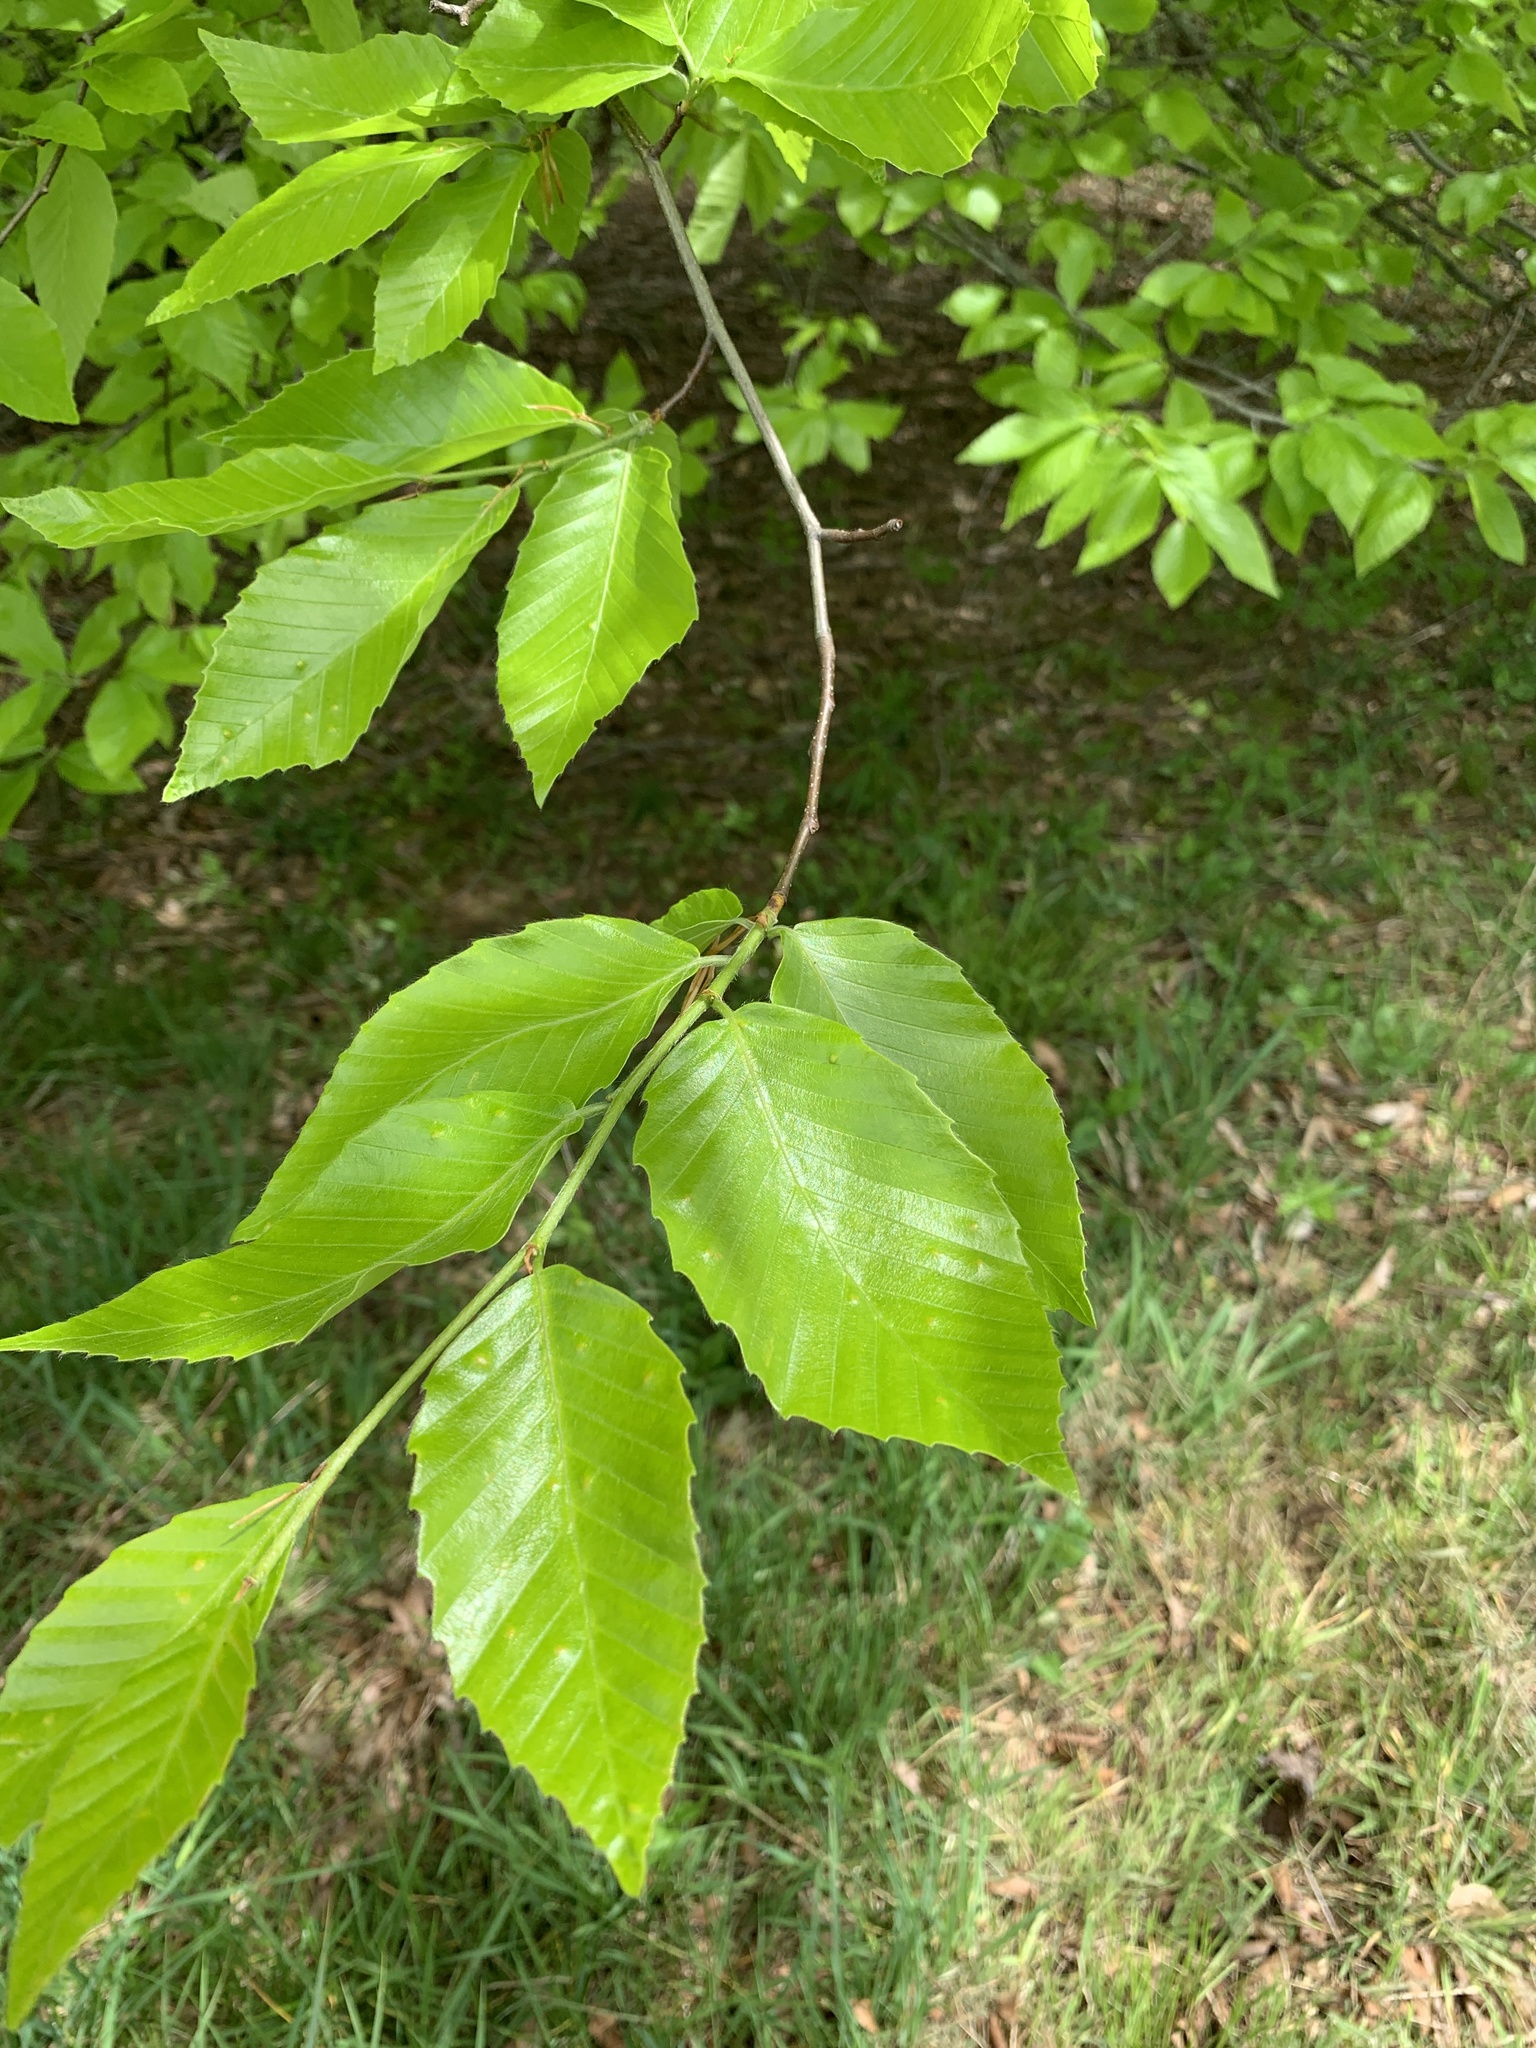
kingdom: Plantae
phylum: Tracheophyta
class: Magnoliopsida
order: Fagales
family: Fagaceae
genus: Fagus
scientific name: Fagus grandifolia
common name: American beech
